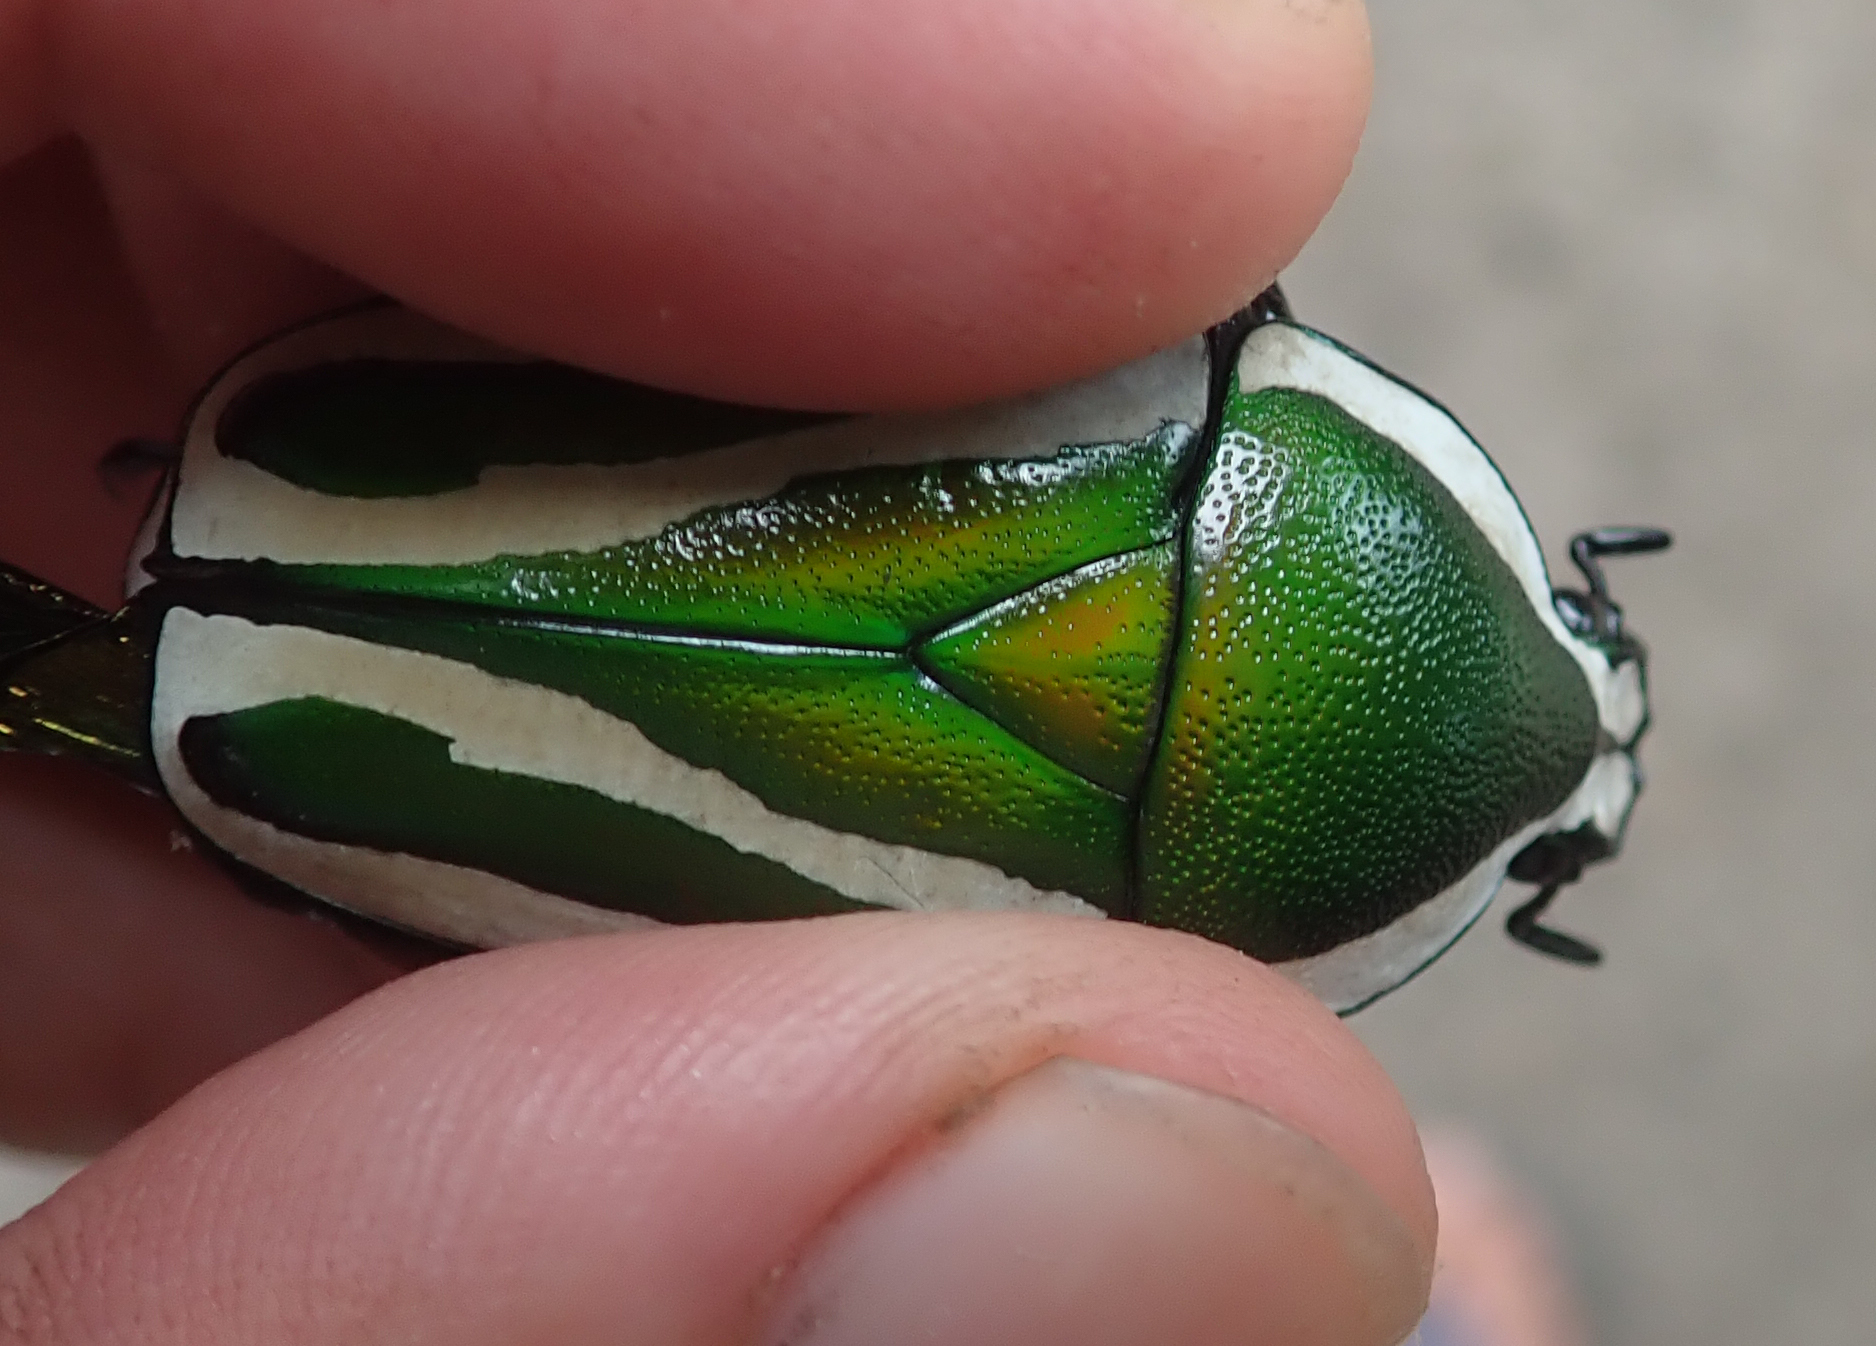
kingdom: Animalia
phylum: Arthropoda
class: Insecta
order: Coleoptera
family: Scarabaeidae
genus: Dicronorhina
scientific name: Dicronorhina derbyana
